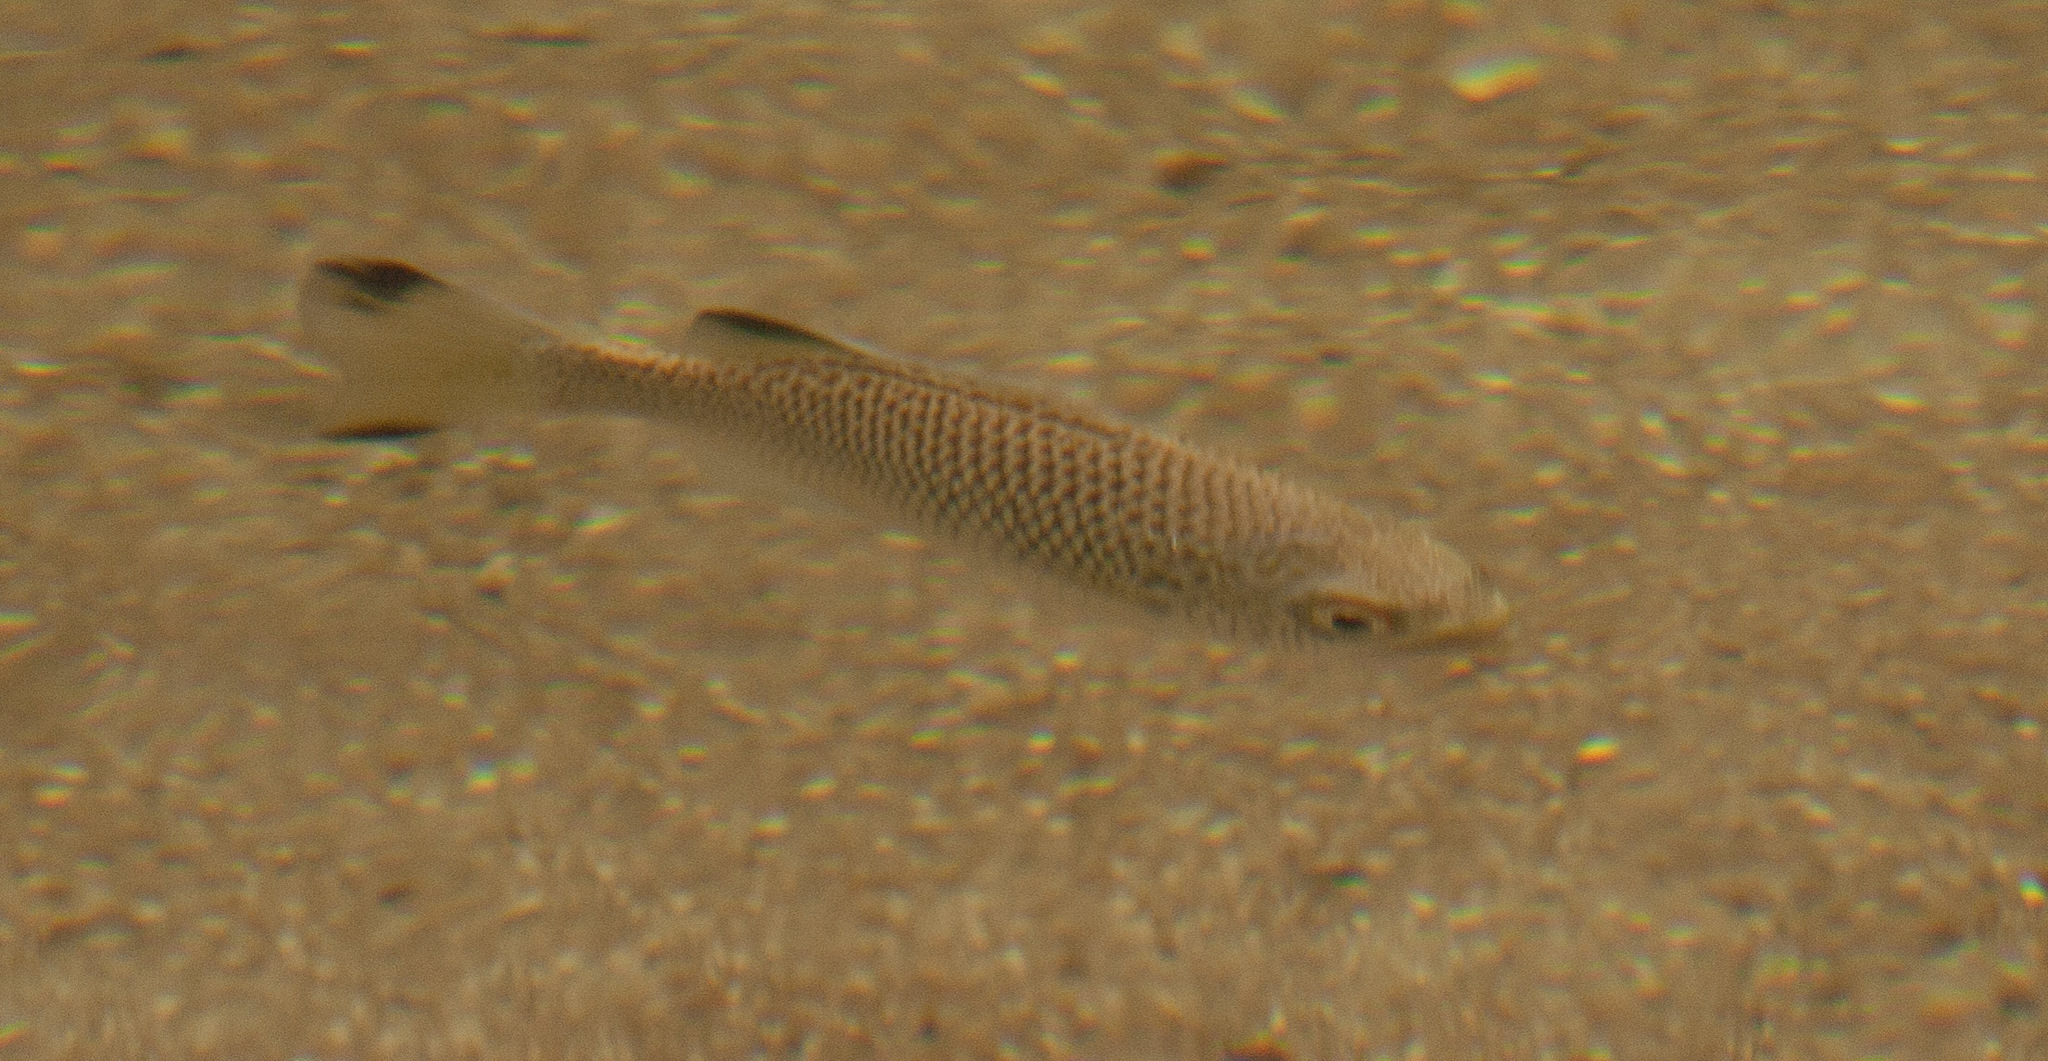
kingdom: Animalia
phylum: Chordata
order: Perciformes
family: Kuhliidae
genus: Kuhlia
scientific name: Kuhlia rupestris
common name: Rock flagtail
